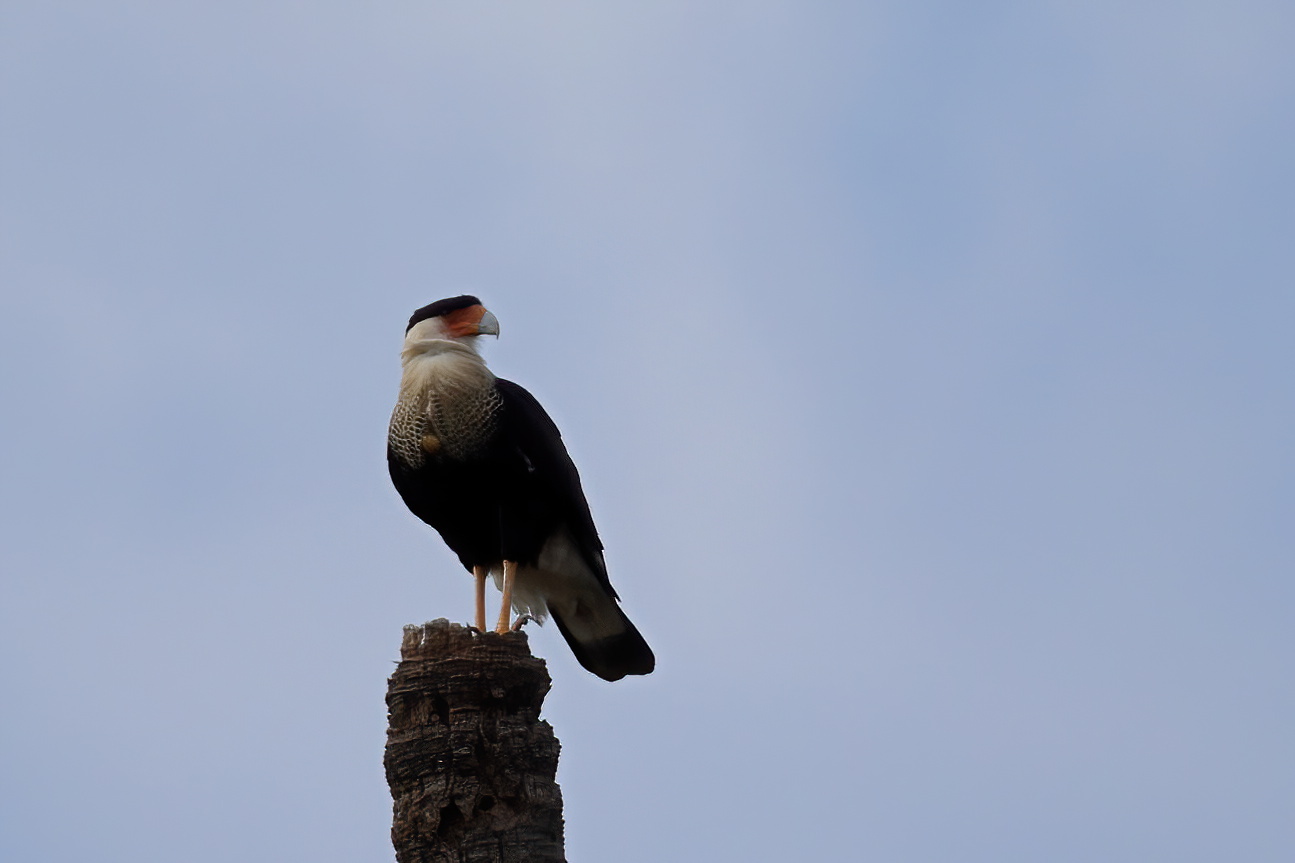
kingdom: Animalia
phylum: Chordata
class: Aves
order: Falconiformes
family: Falconidae
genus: Caracara
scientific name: Caracara plancus
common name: Southern caracara
